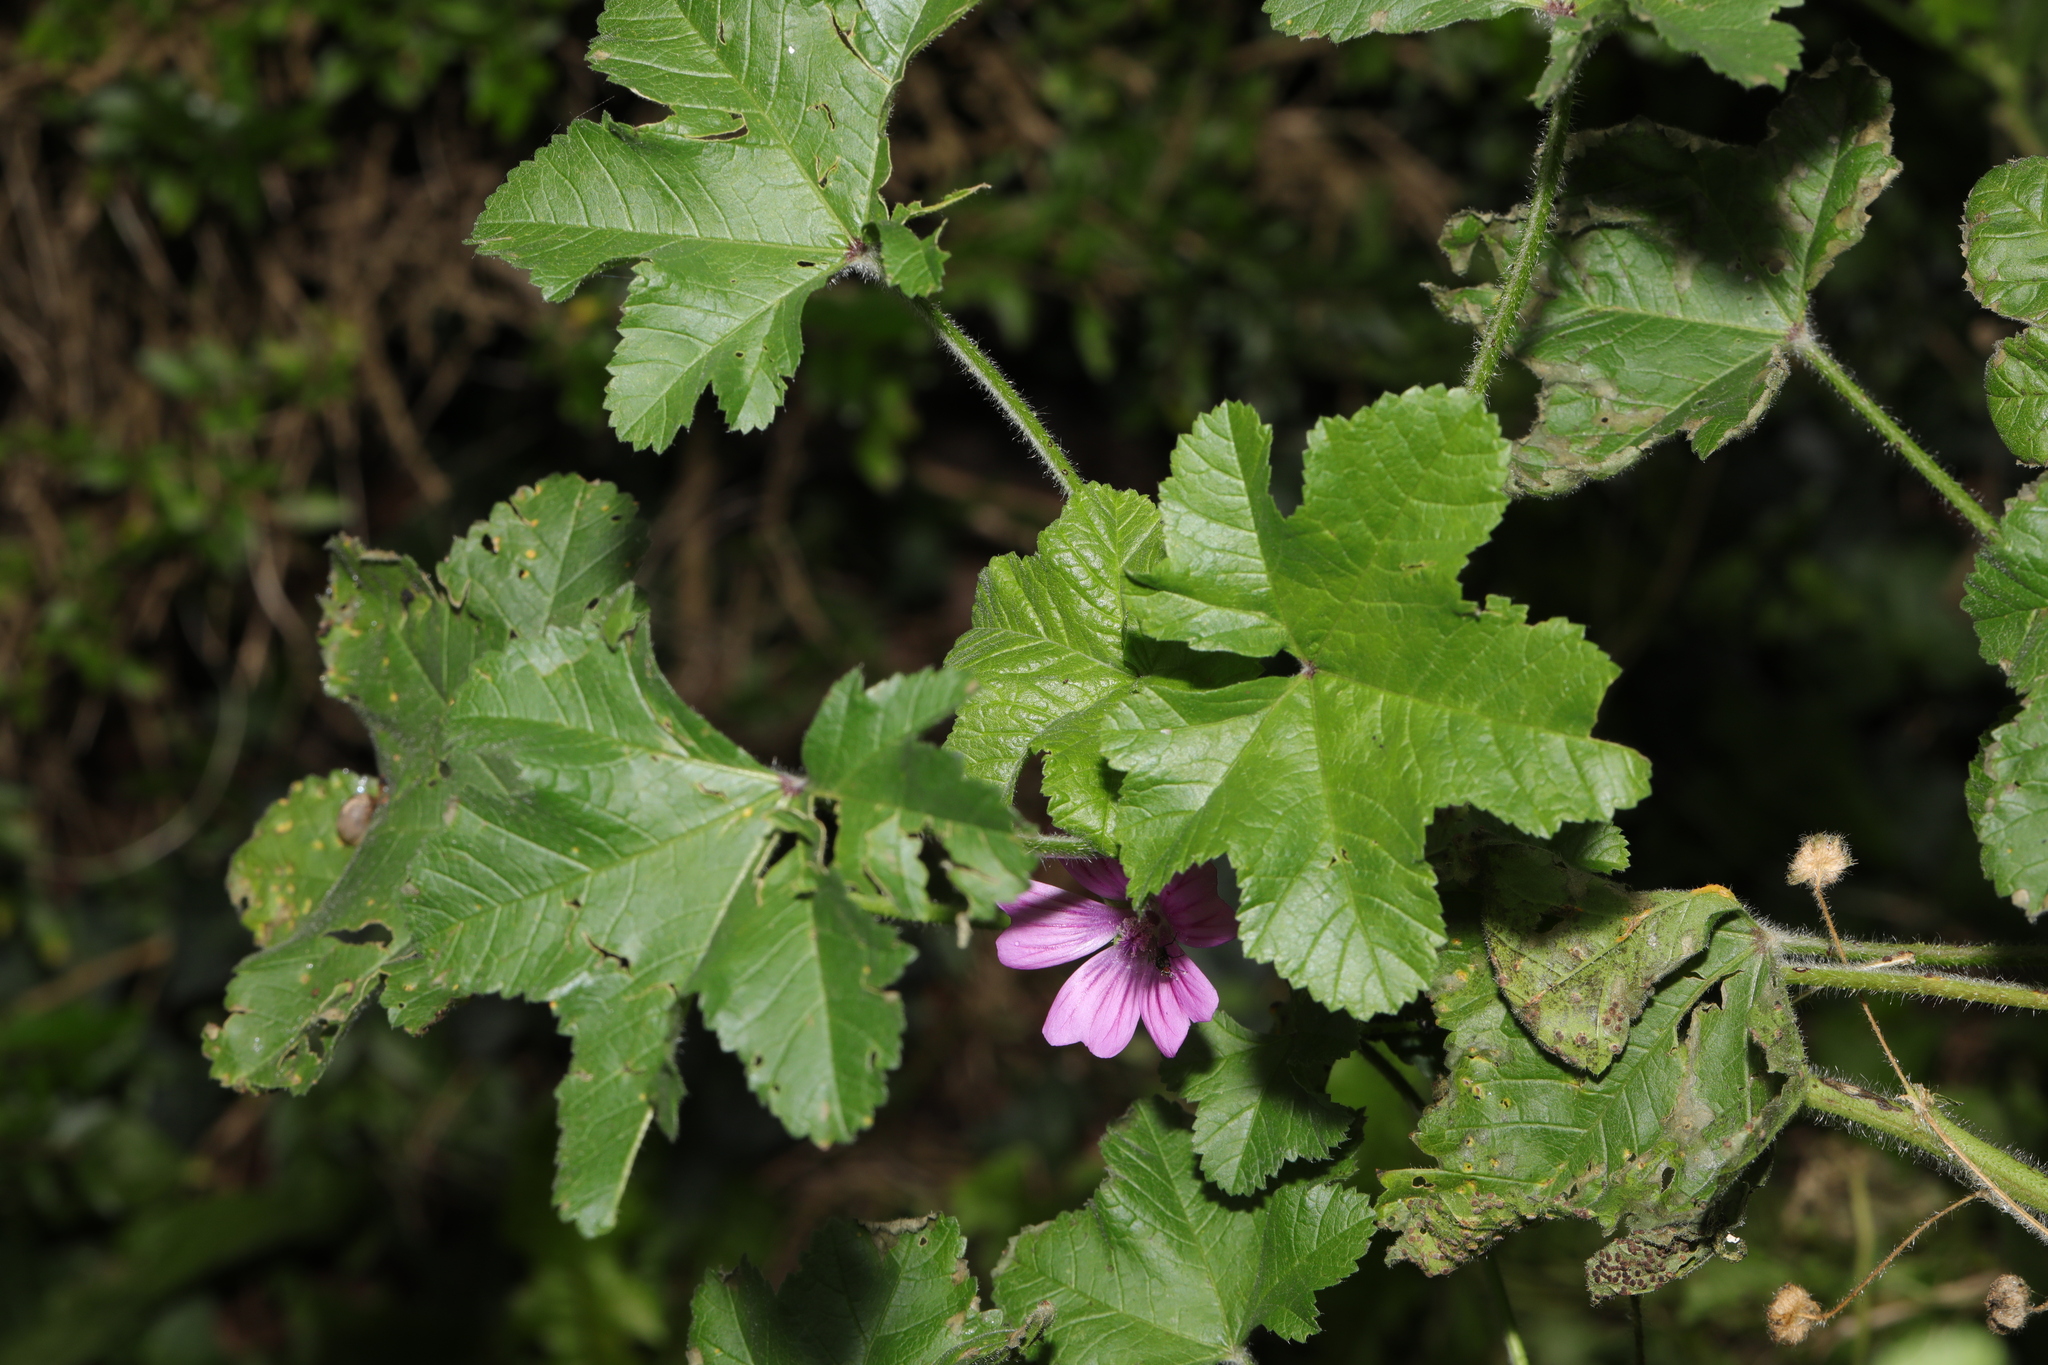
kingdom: Plantae
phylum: Tracheophyta
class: Magnoliopsida
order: Malvales
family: Malvaceae
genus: Malva
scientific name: Malva sylvestris
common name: Common mallow
